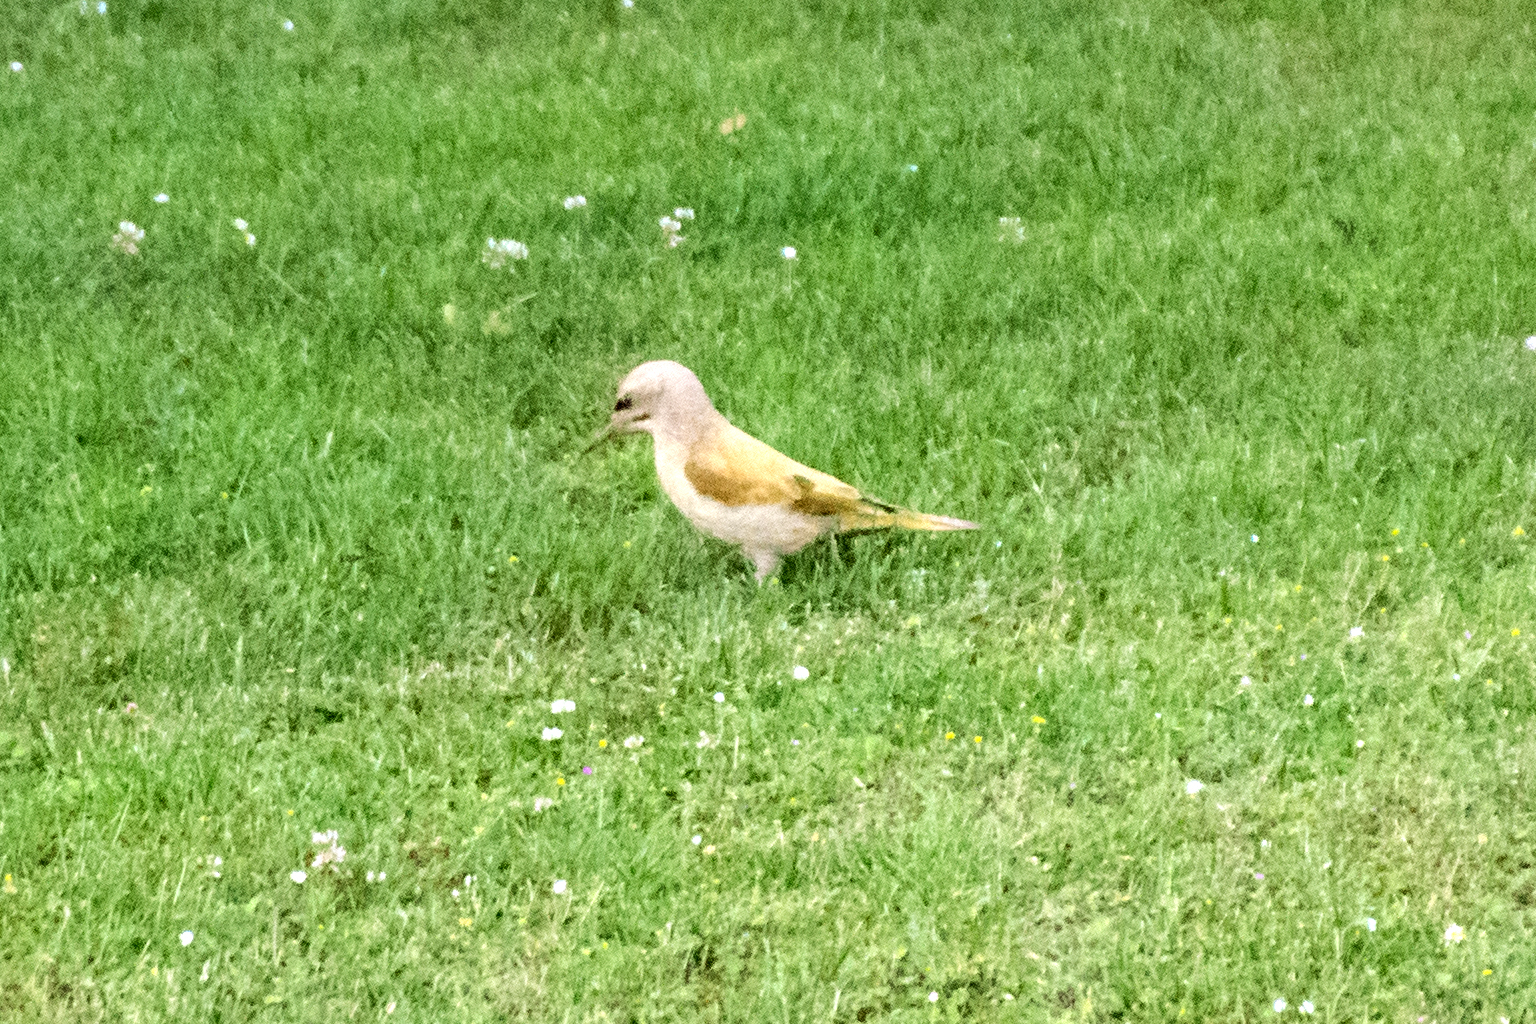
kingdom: Animalia
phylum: Chordata
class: Aves
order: Piciformes
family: Picidae
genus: Picus
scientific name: Picus canus
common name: Grey-headed woodpecker
